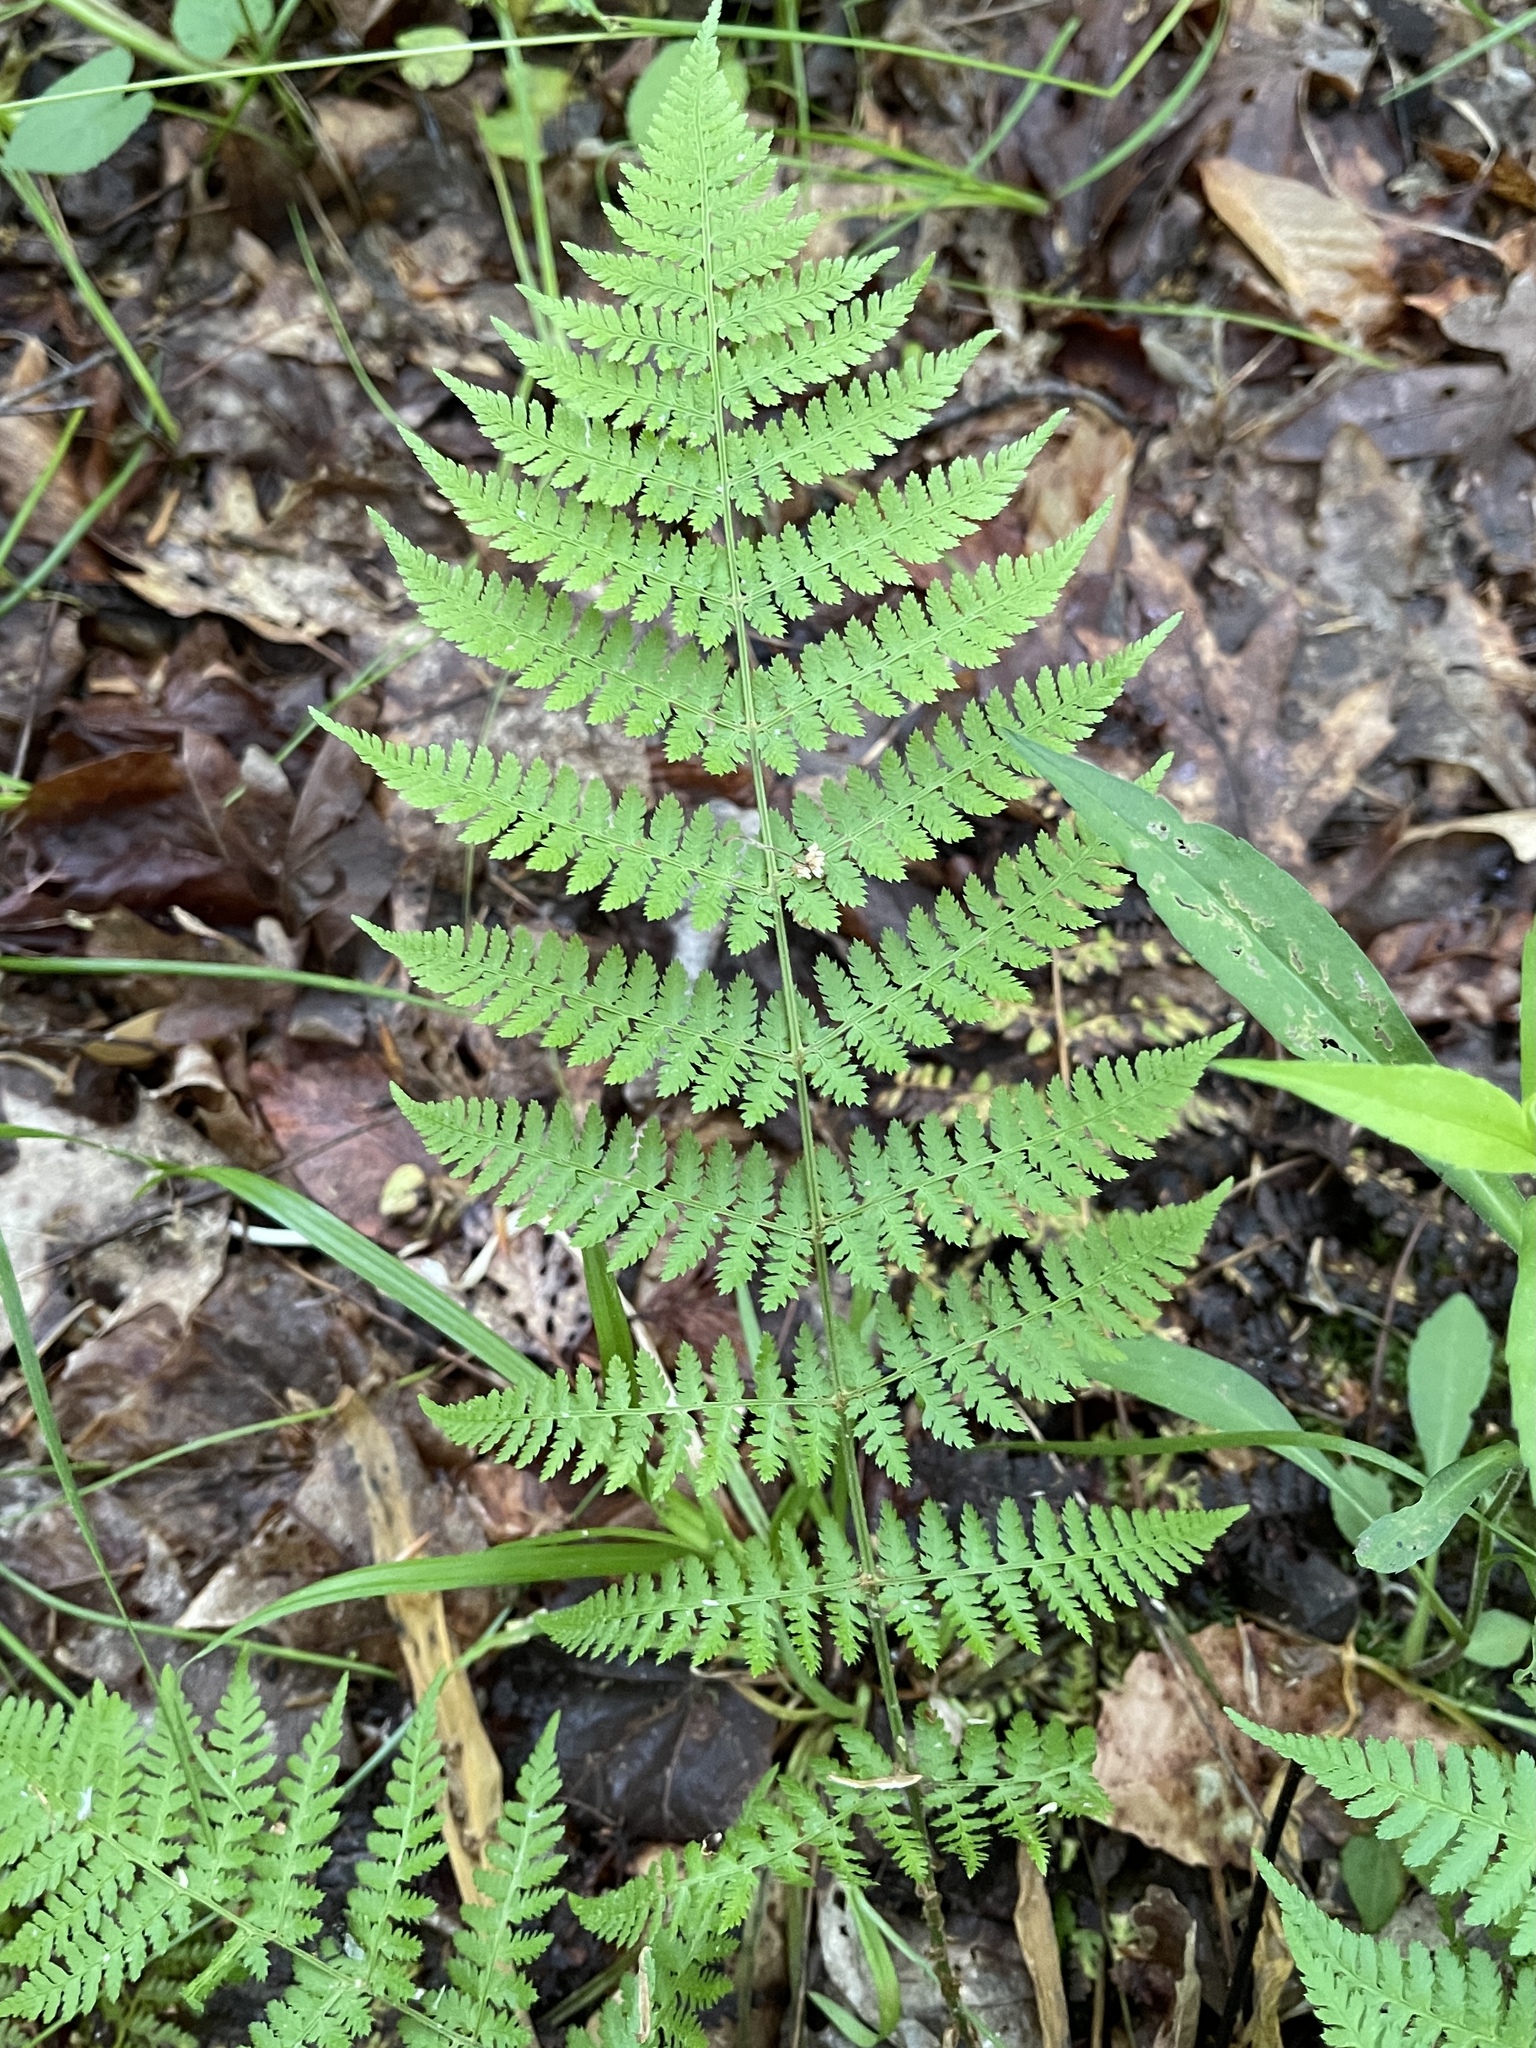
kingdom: Plantae
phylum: Tracheophyta
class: Polypodiopsida
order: Polypodiales
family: Dryopteridaceae
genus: Dryopteris
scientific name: Dryopteris intermedia
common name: Evergreen wood fern
